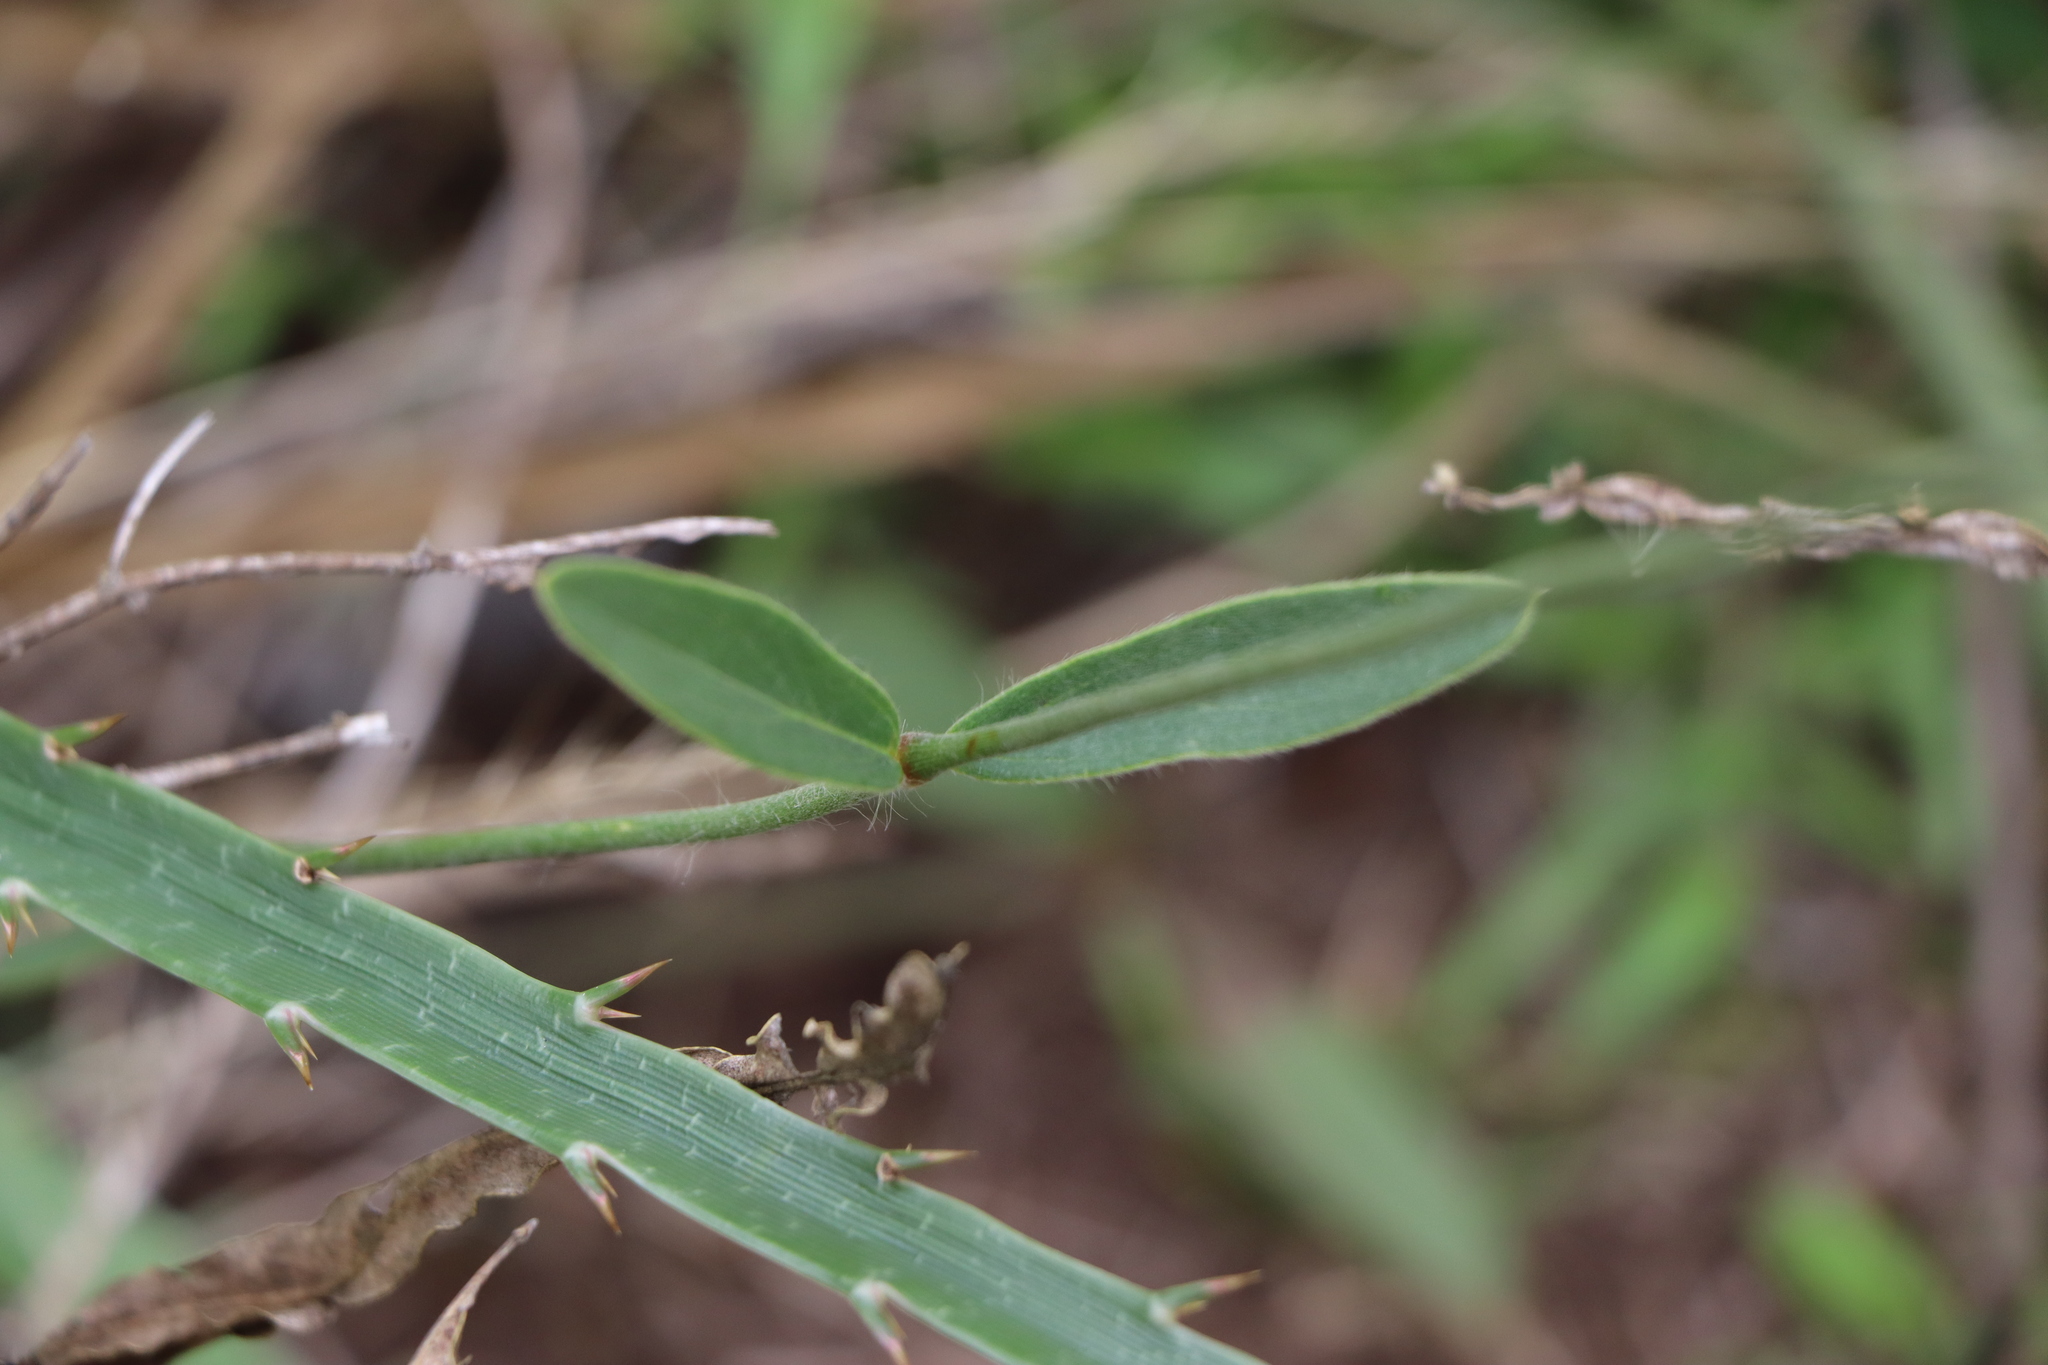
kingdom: Plantae
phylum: Tracheophyta
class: Magnoliopsida
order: Caryophyllales
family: Amaranthaceae
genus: Pfaffia
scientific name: Pfaffia tuberosa
